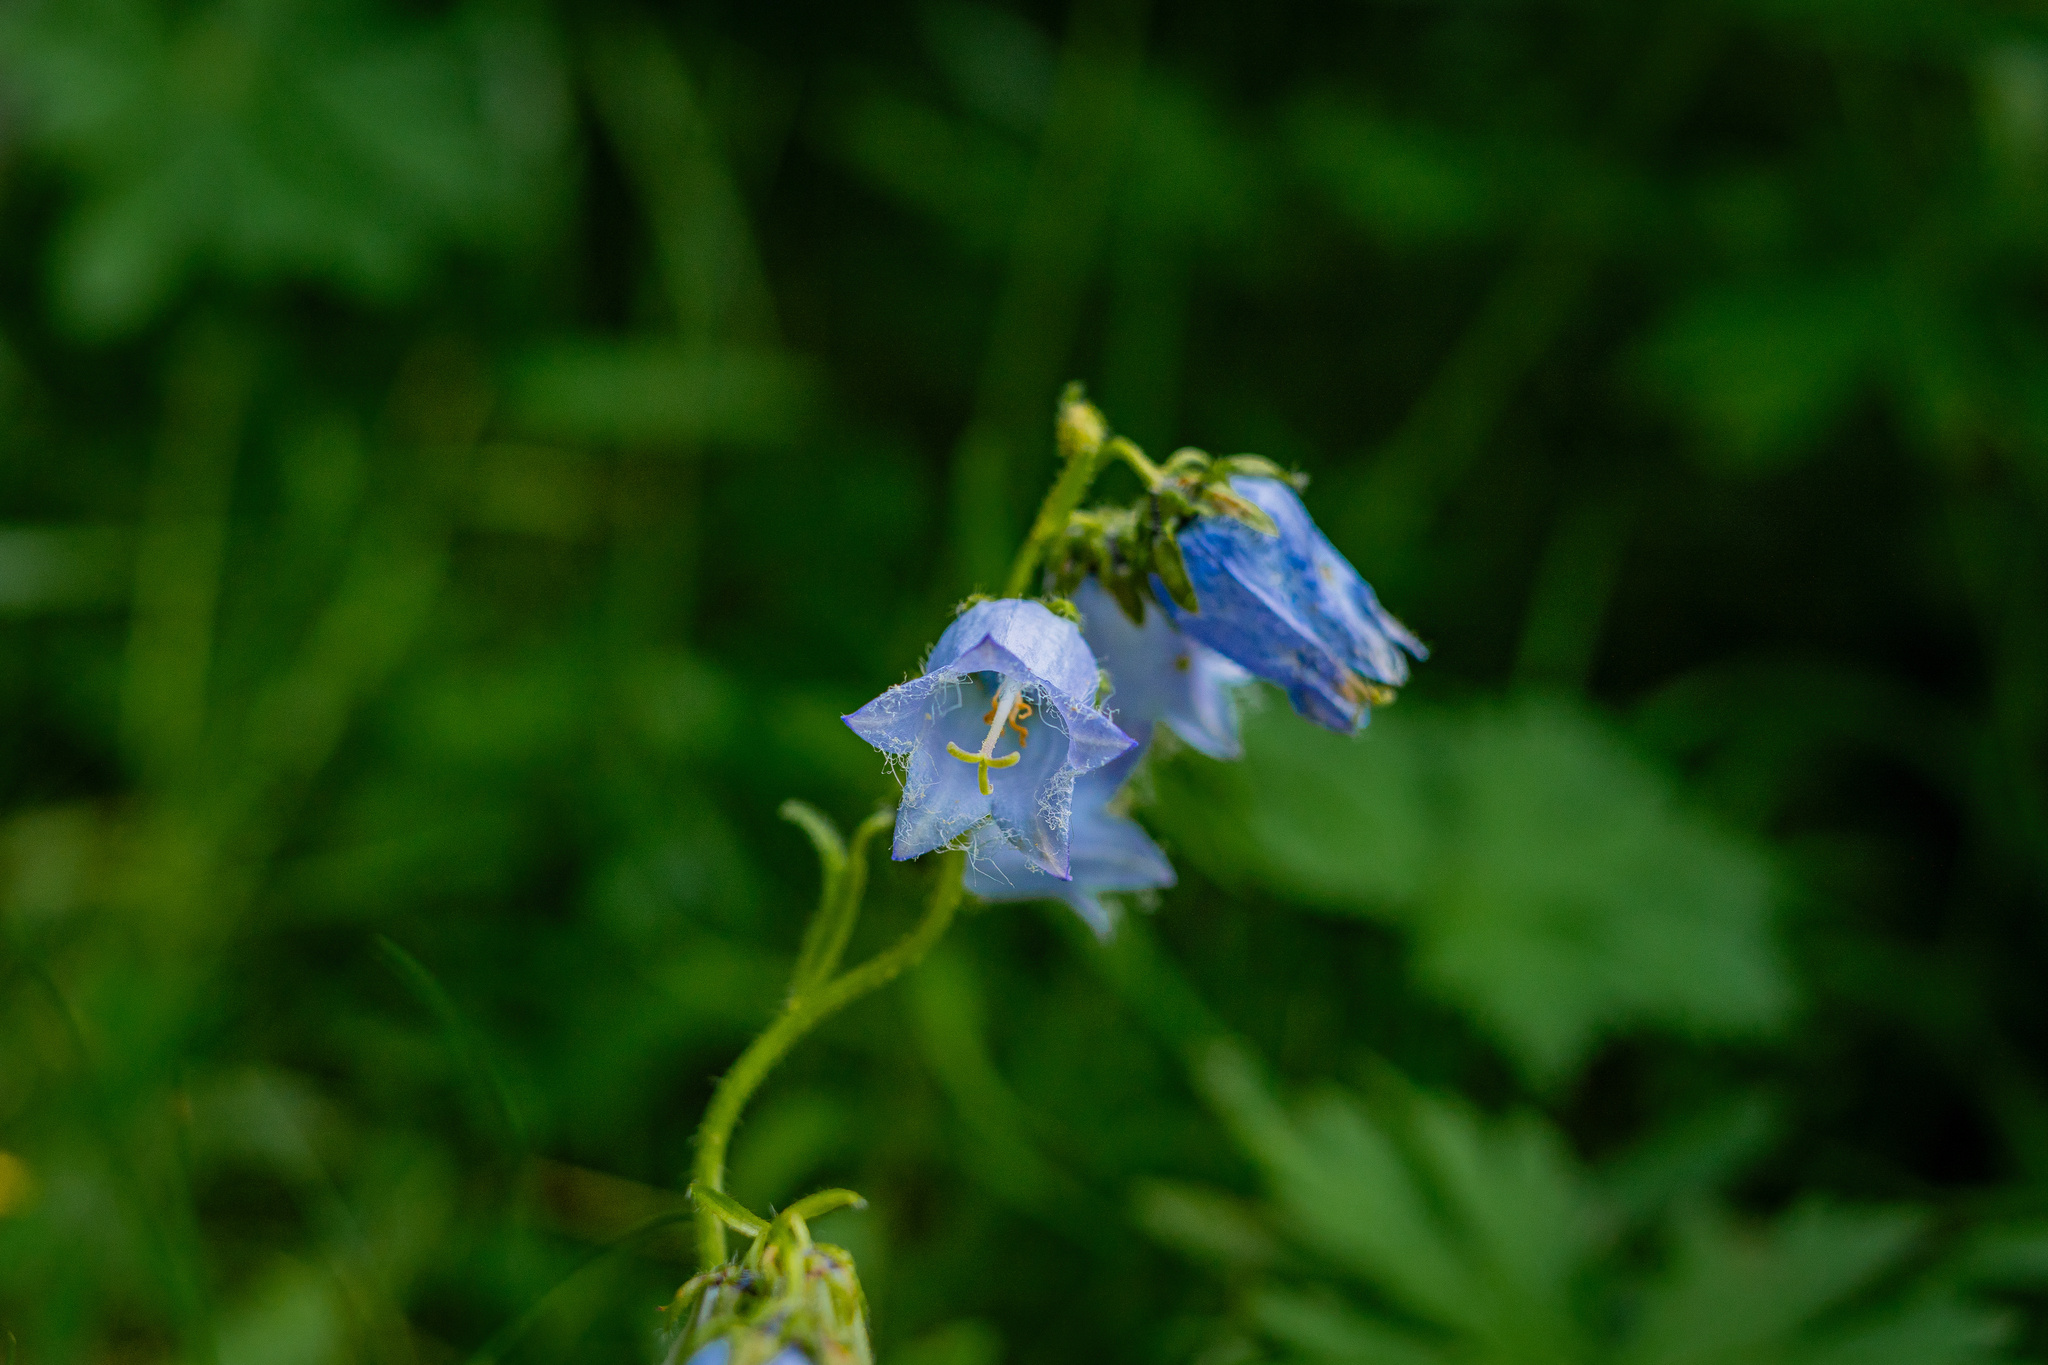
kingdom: Plantae
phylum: Tracheophyta
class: Magnoliopsida
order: Asterales
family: Campanulaceae
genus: Campanula
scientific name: Campanula barbata
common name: Bearded bellflower
